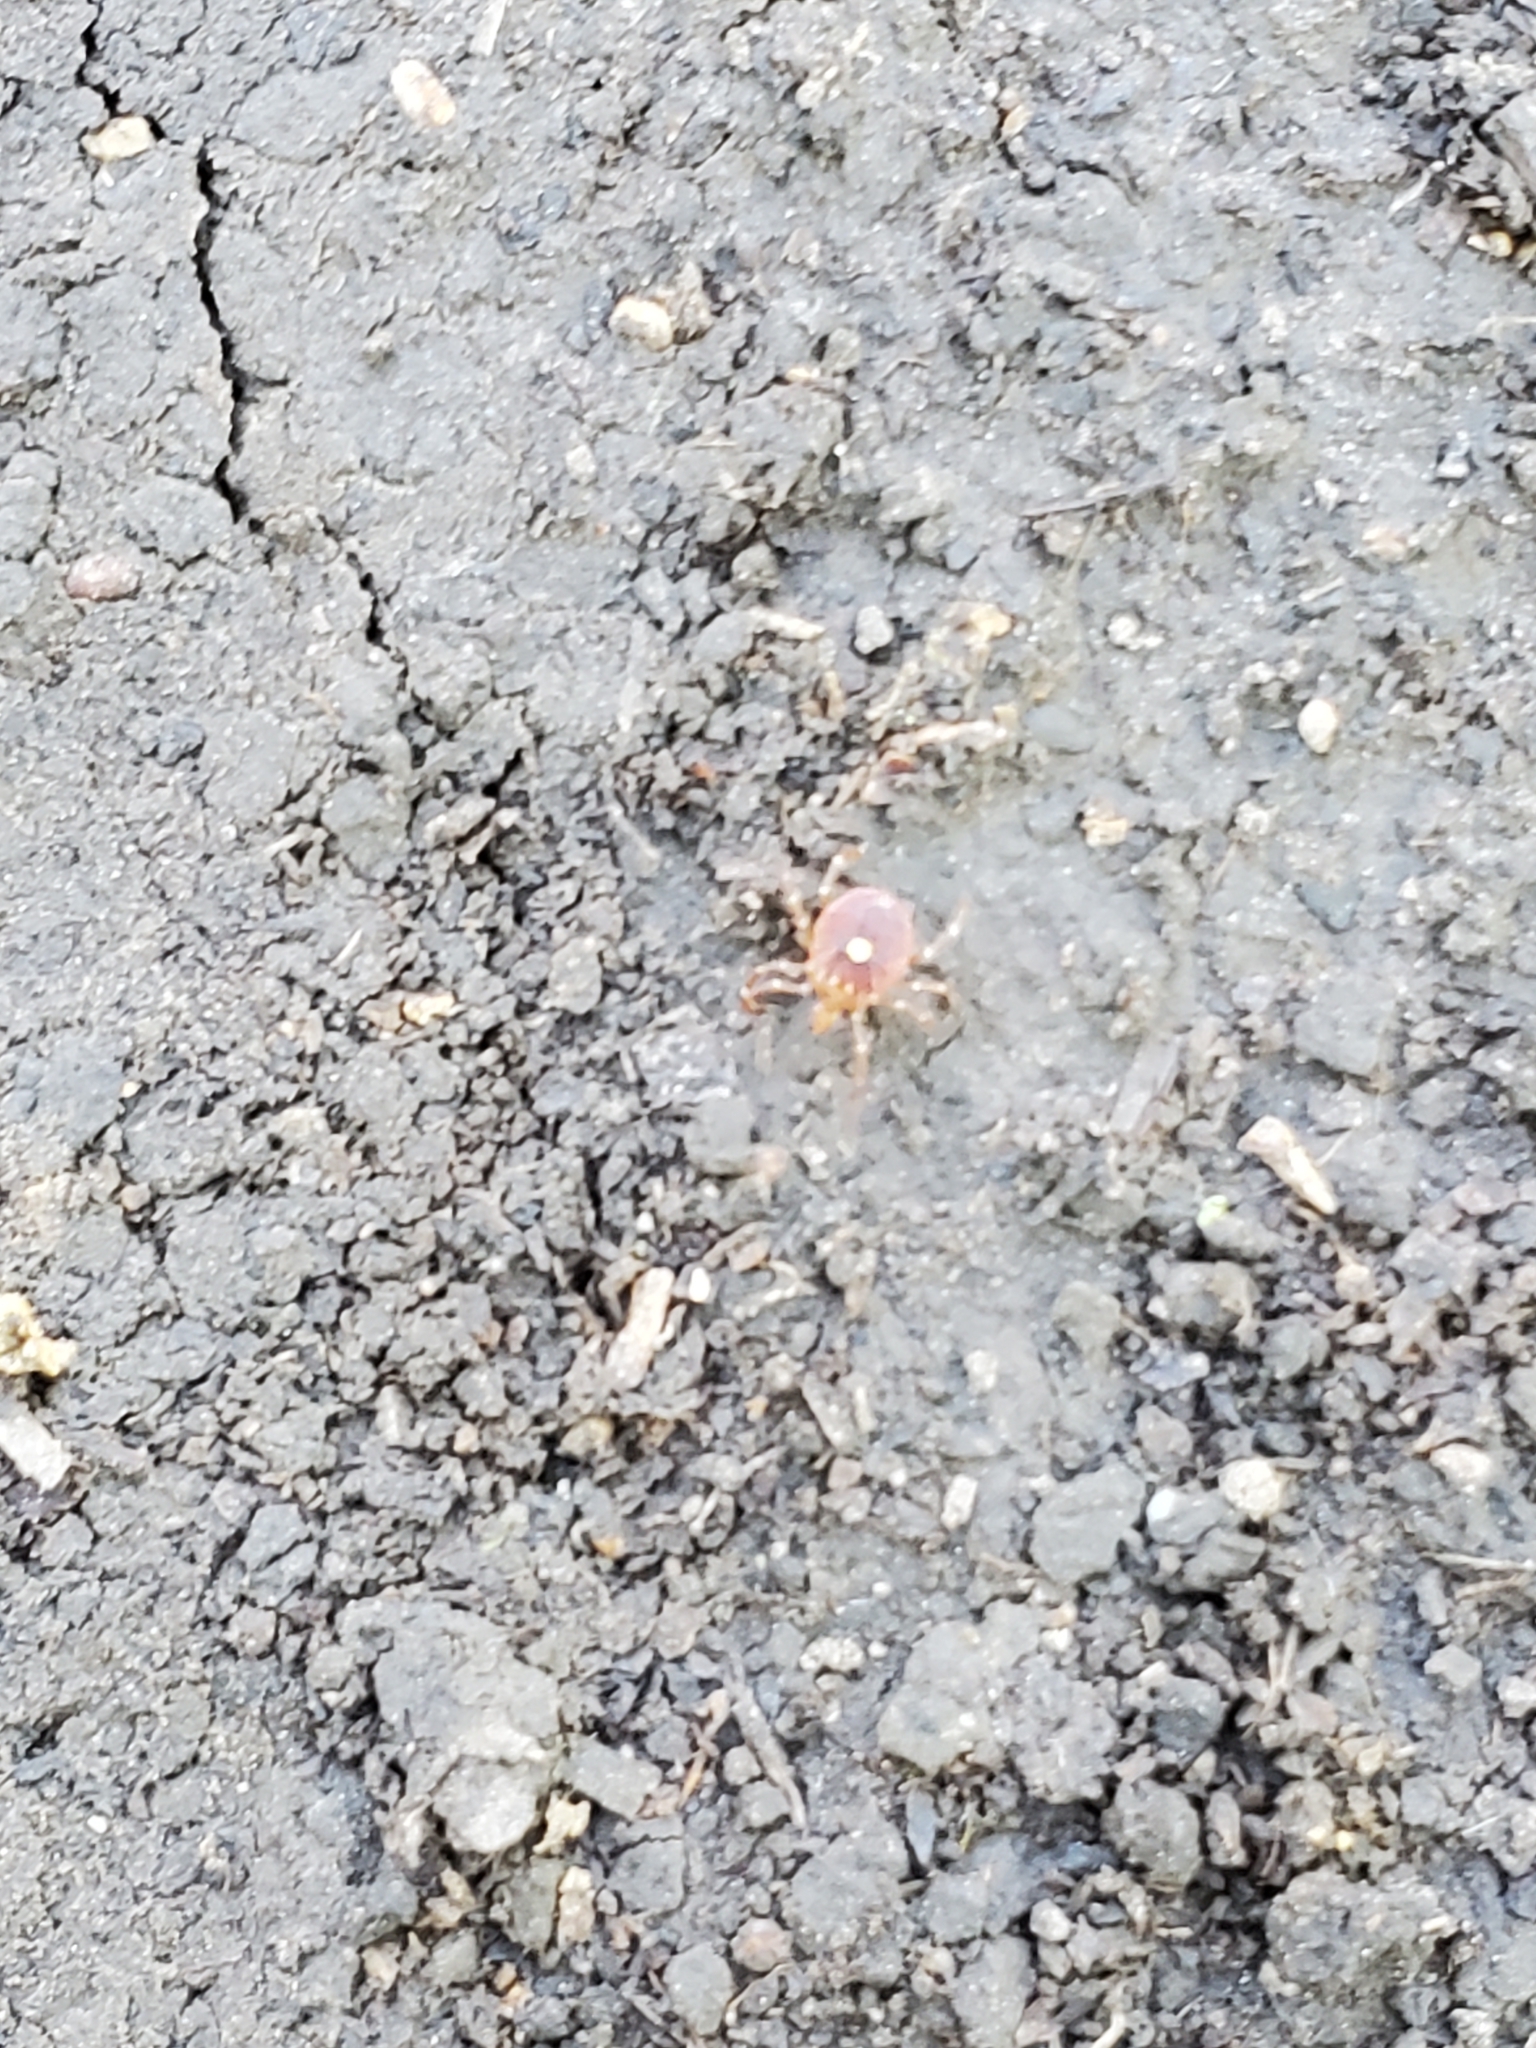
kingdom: Animalia
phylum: Arthropoda
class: Arachnida
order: Ixodida
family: Ixodidae
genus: Amblyomma
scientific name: Amblyomma americanum
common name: Lone star tick
